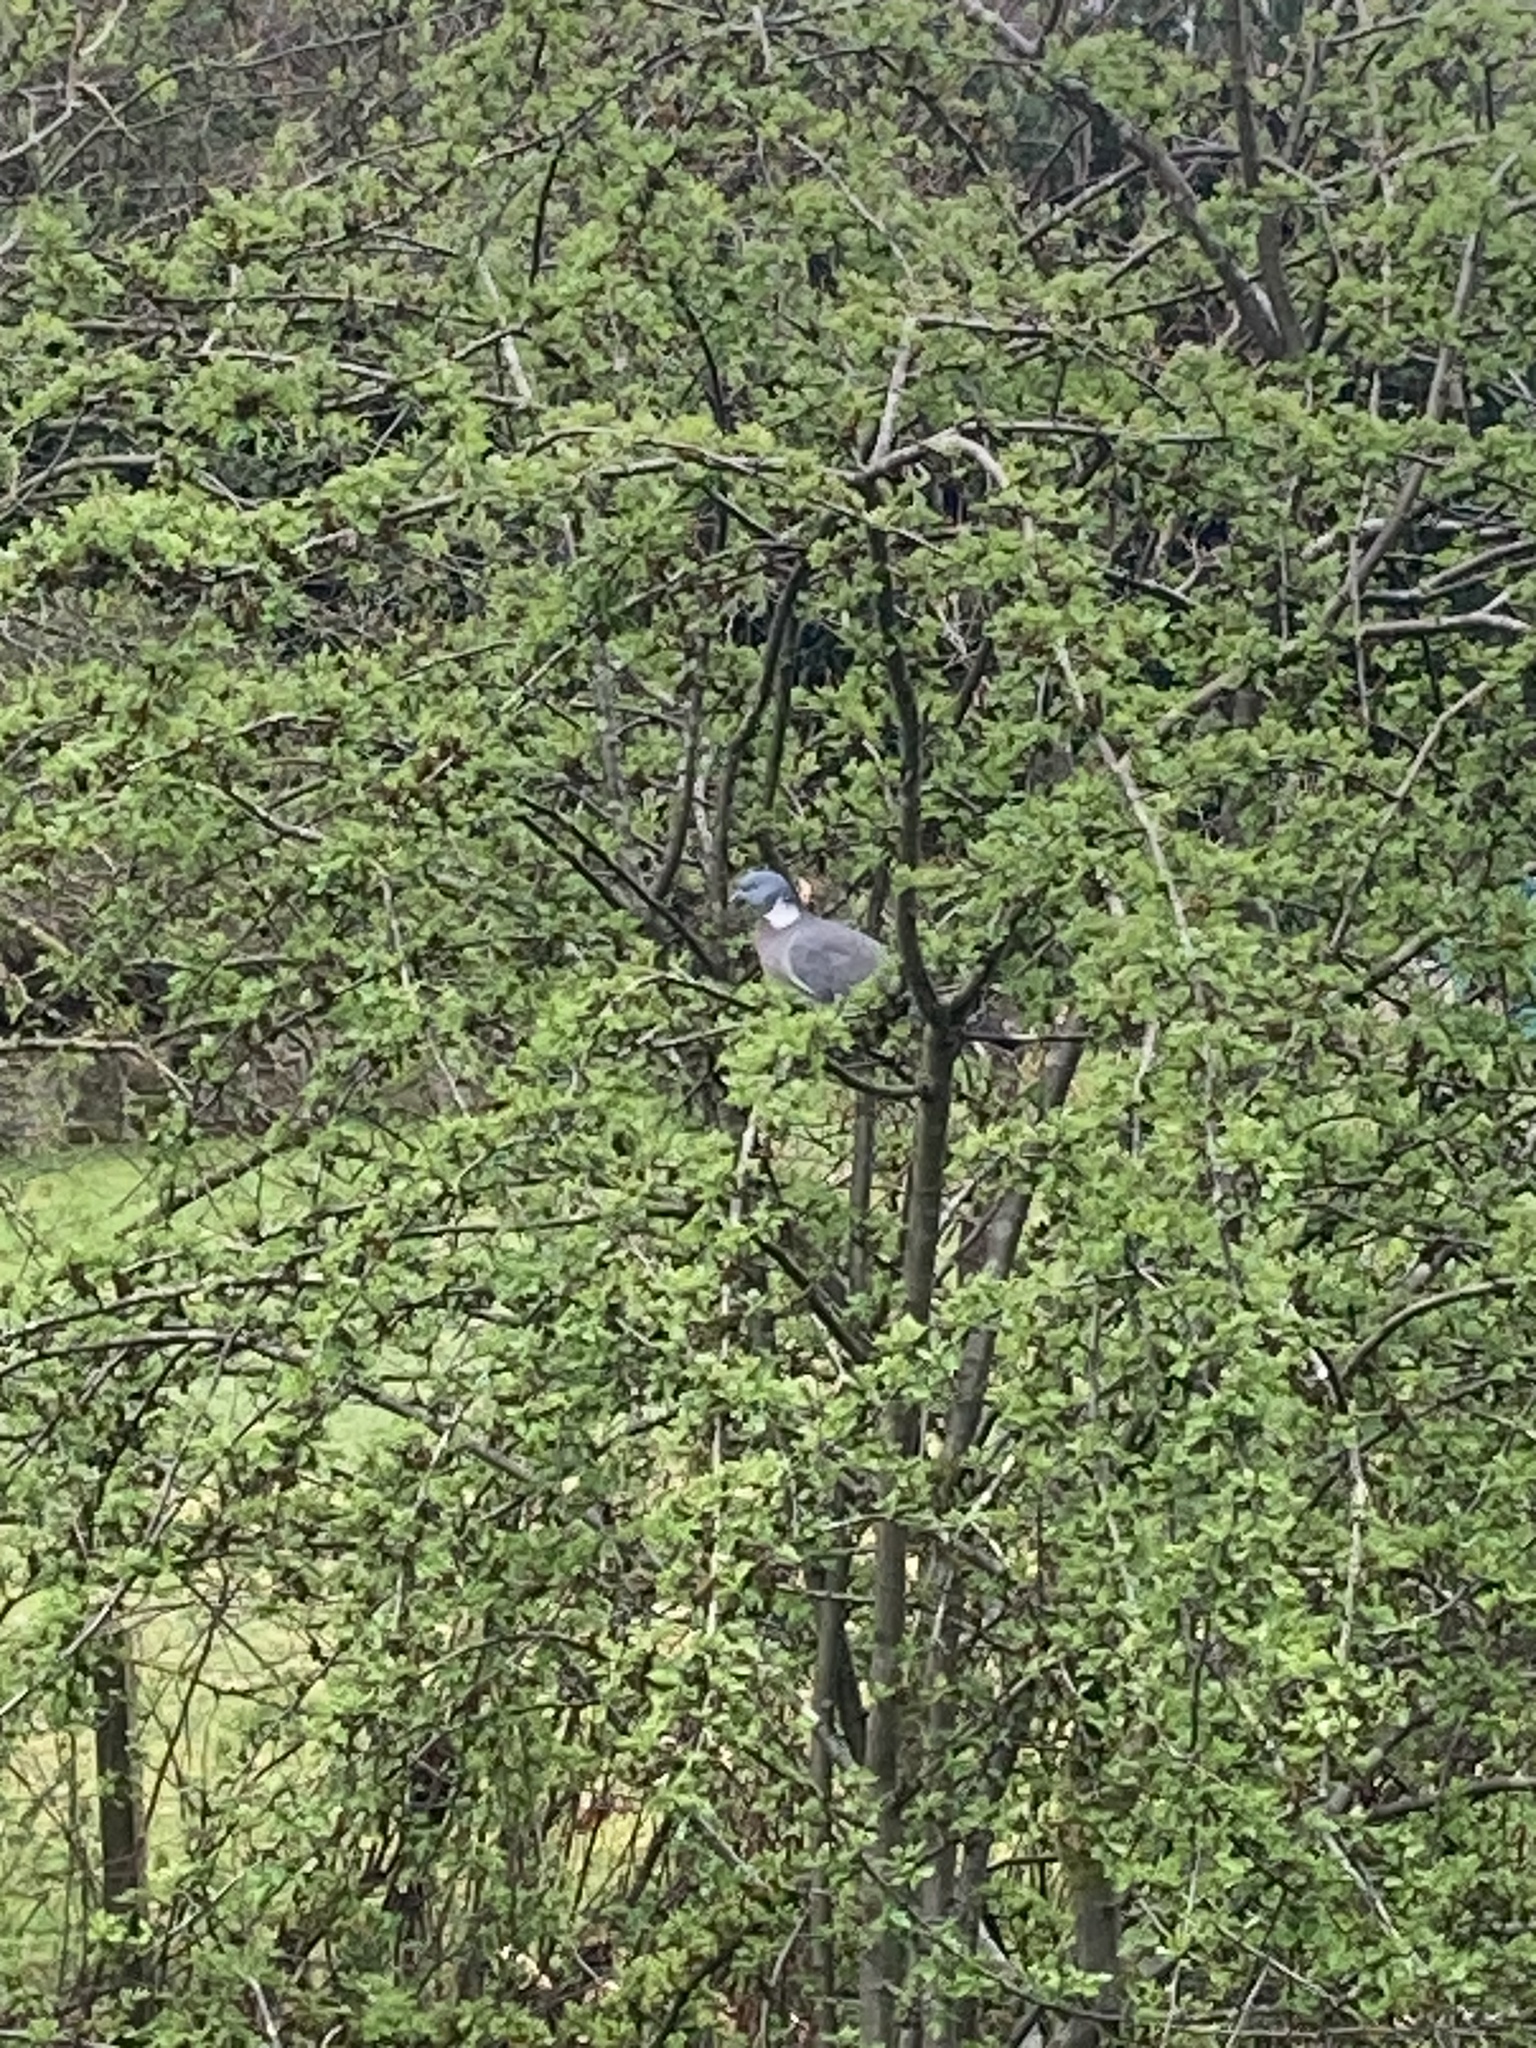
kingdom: Animalia
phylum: Chordata
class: Aves
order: Columbiformes
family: Columbidae
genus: Columba
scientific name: Columba palumbus
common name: Common wood pigeon
